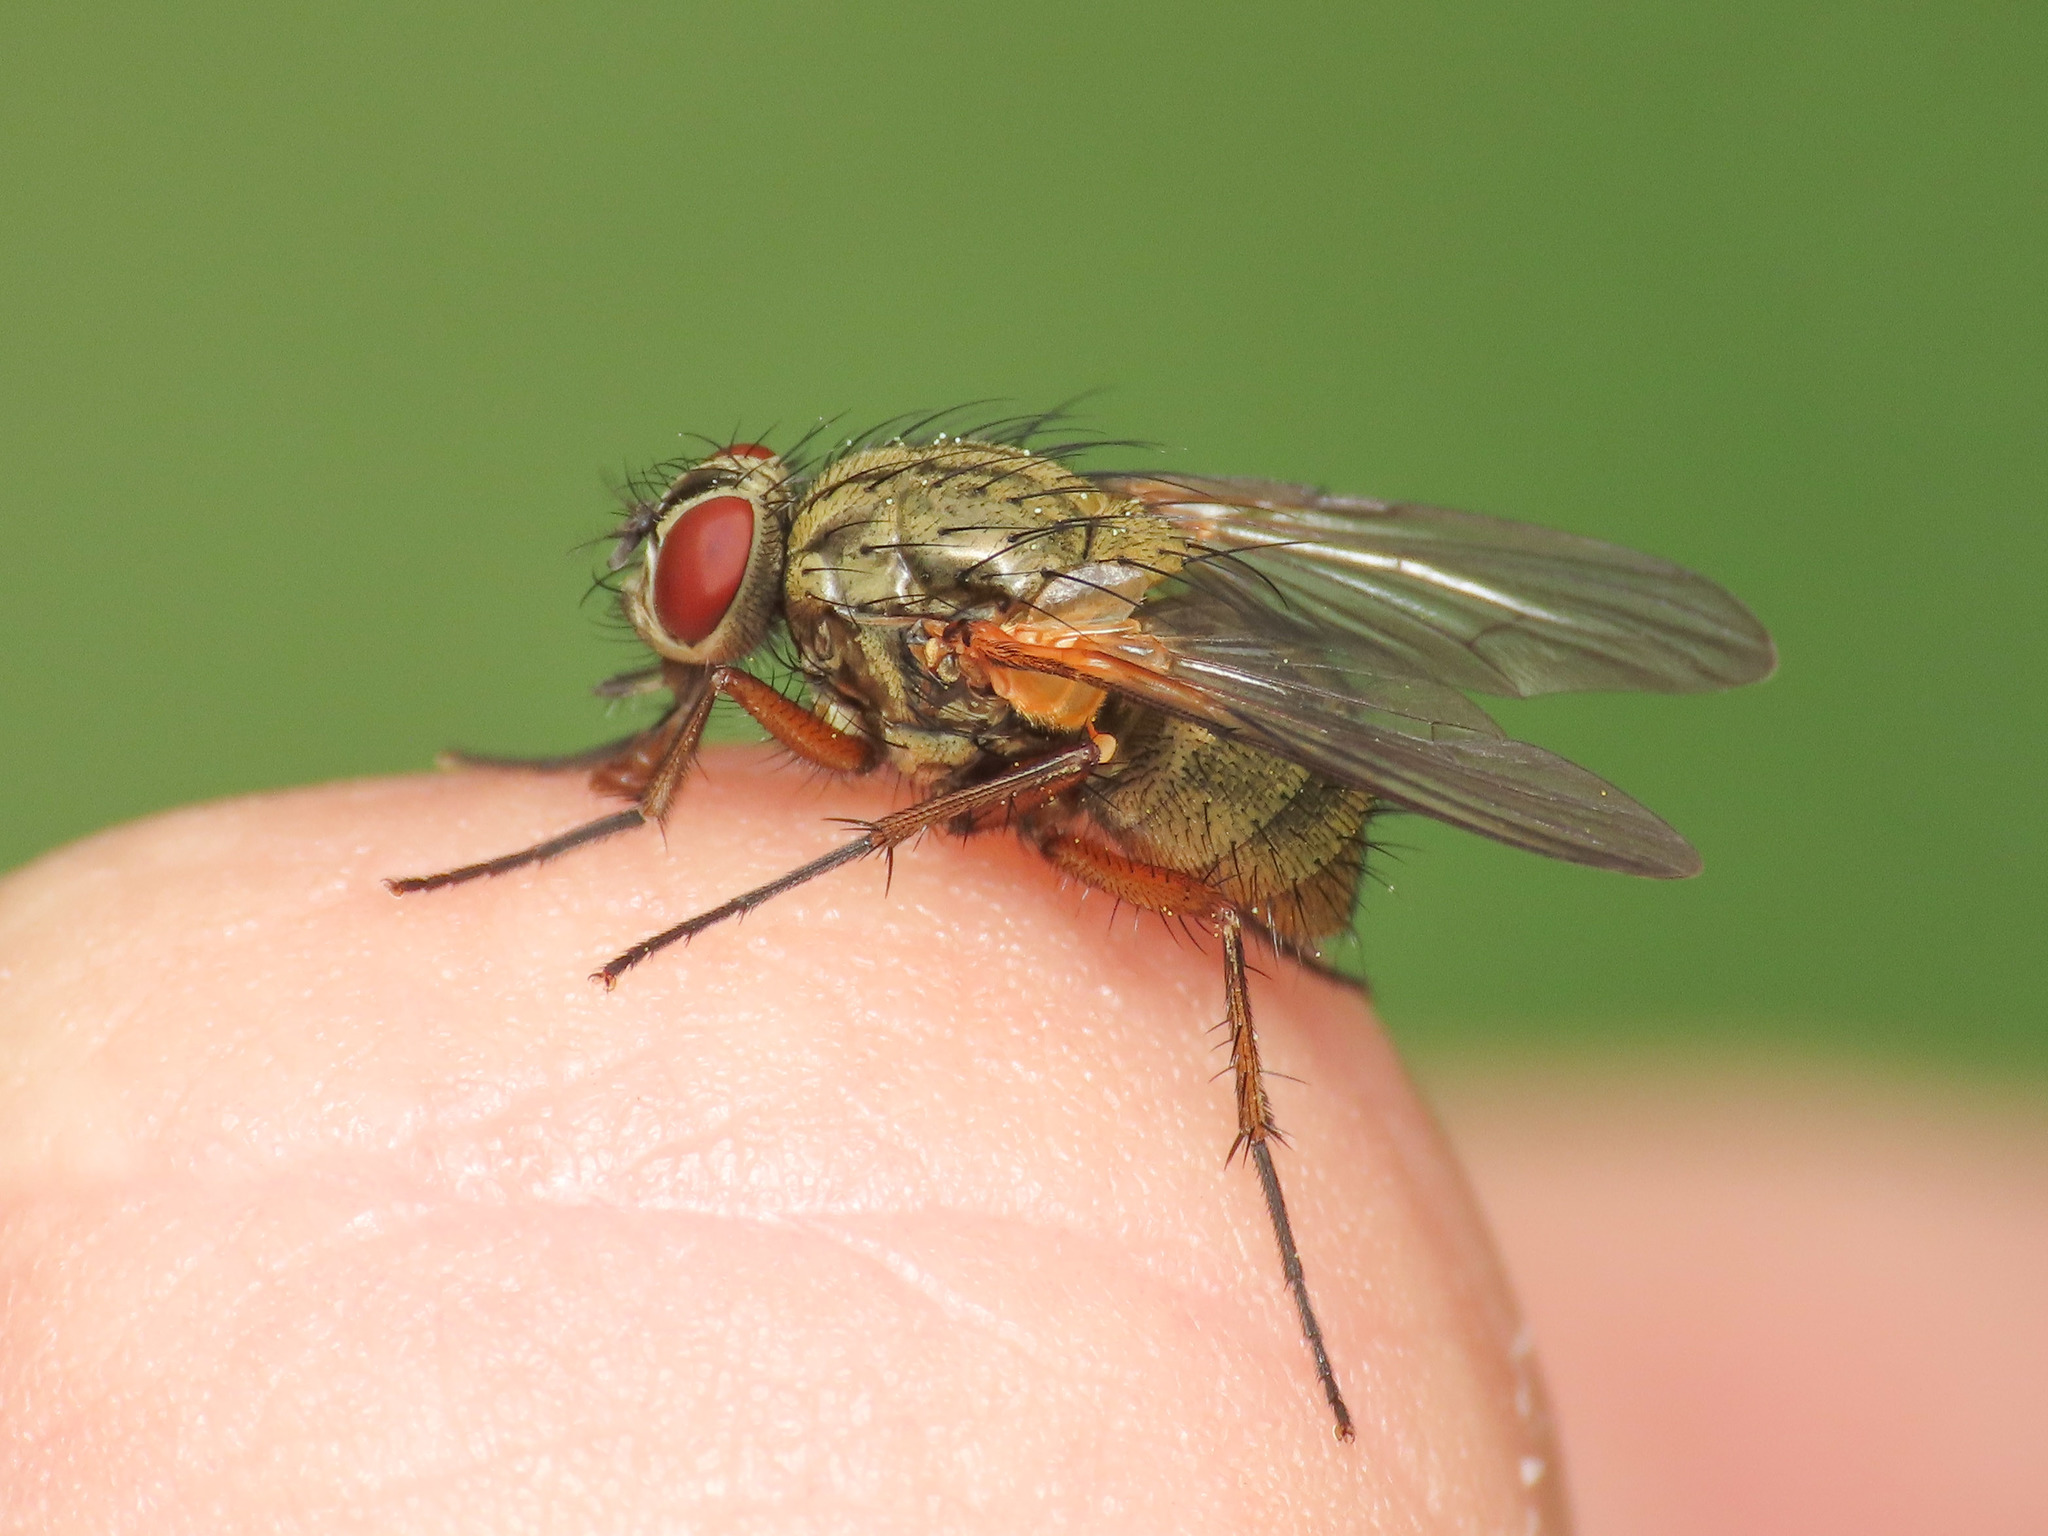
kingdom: Animalia
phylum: Arthropoda
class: Insecta
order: Diptera
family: Muscidae
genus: Phaonia
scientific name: Phaonia angelicae
